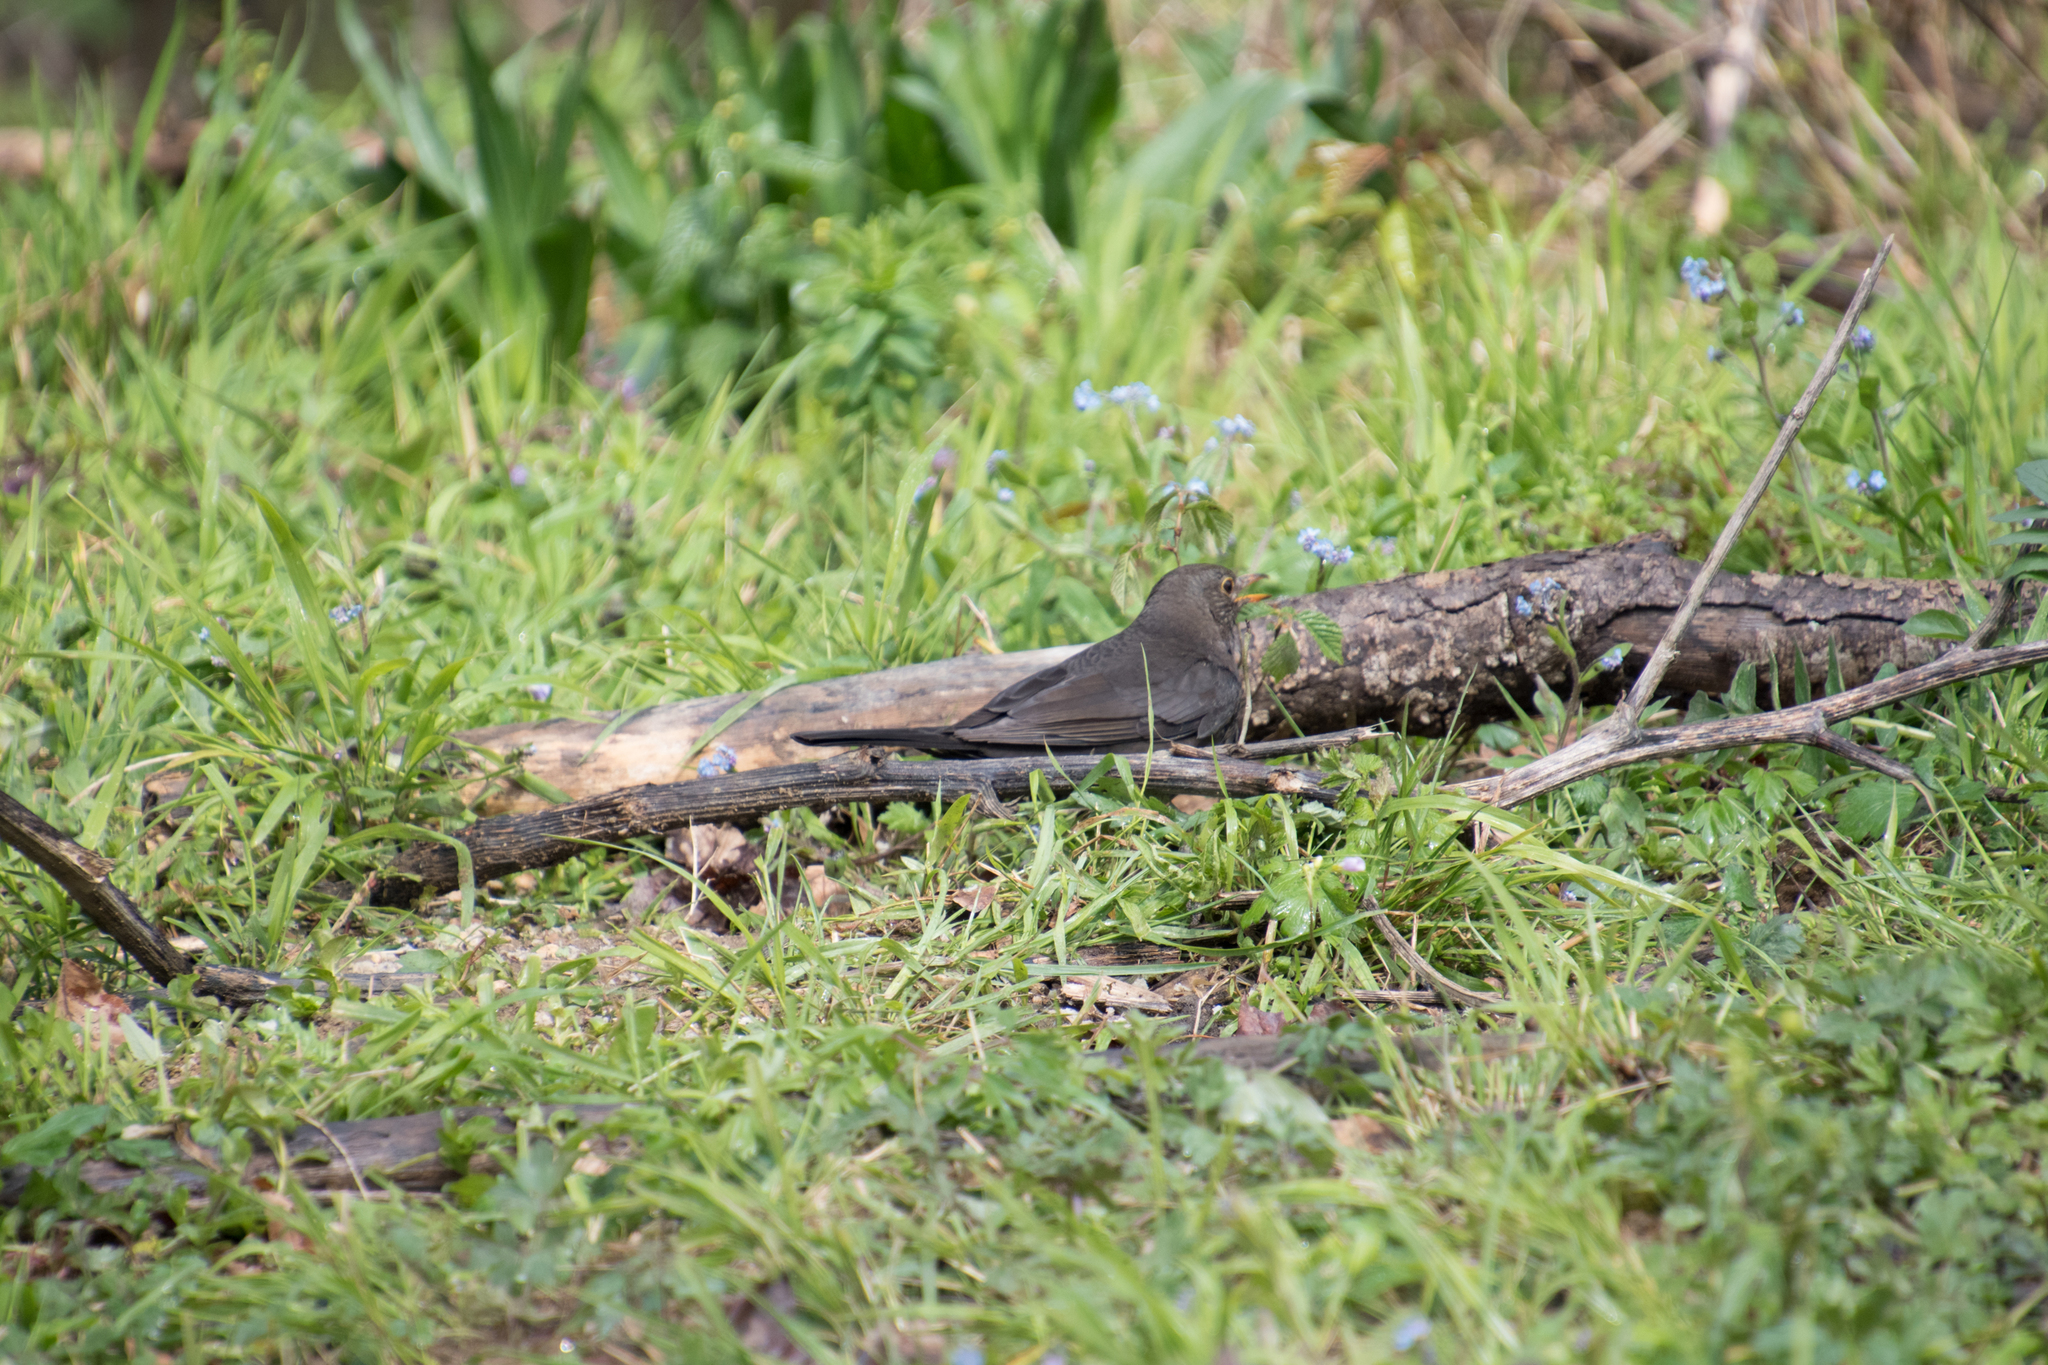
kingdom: Animalia
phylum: Chordata
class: Aves
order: Passeriformes
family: Turdidae
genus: Turdus
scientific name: Turdus merula
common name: Common blackbird
